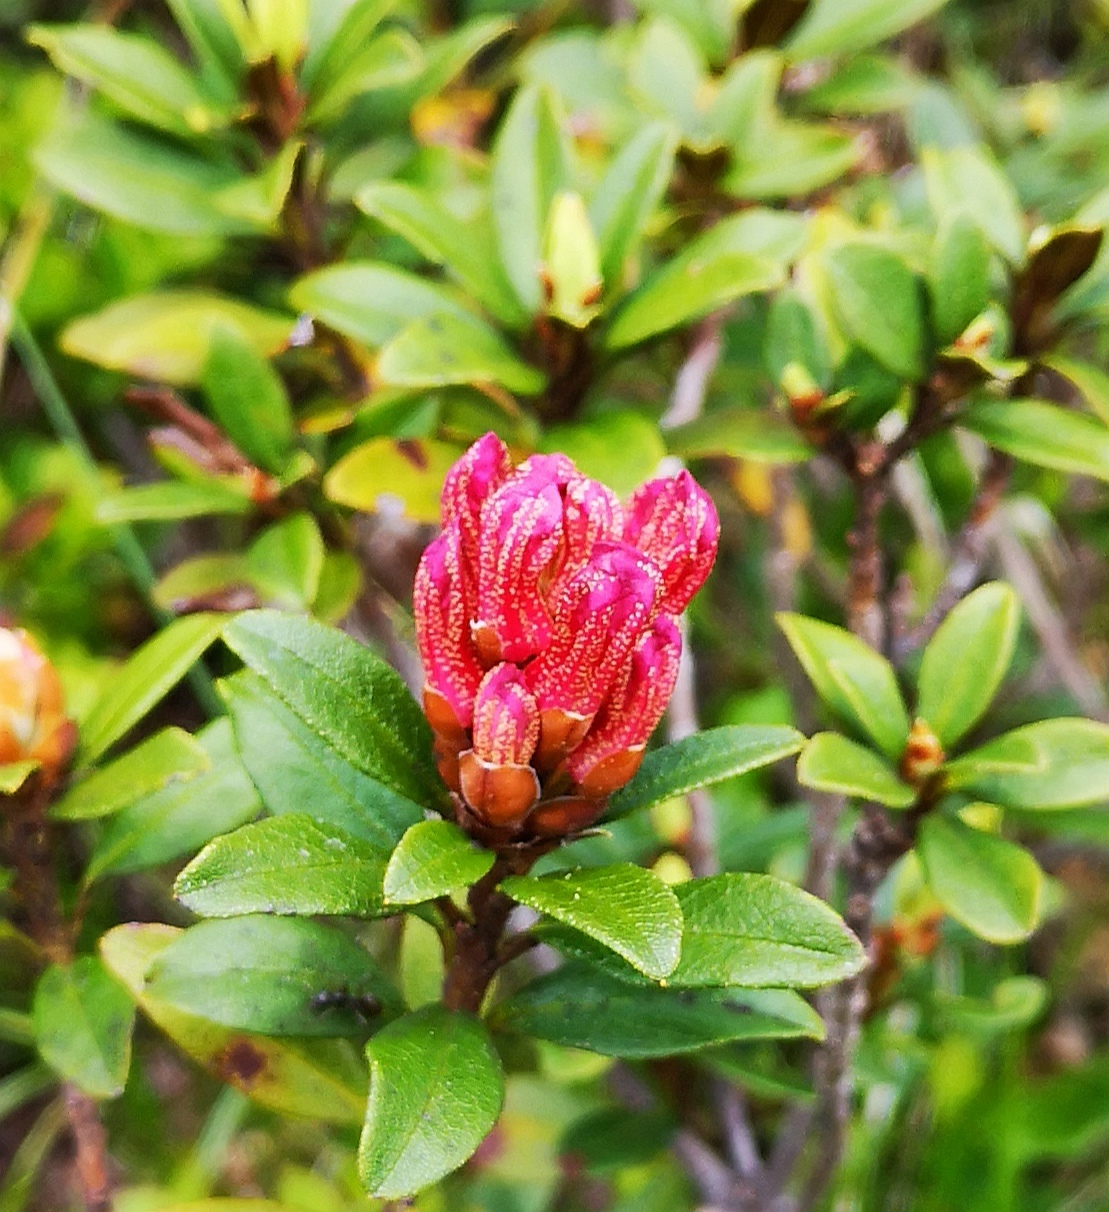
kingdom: Plantae
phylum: Tracheophyta
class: Magnoliopsida
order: Ericales
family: Ericaceae
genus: Rhododendron
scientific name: Rhododendron ferrugineum
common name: Alpenrose
